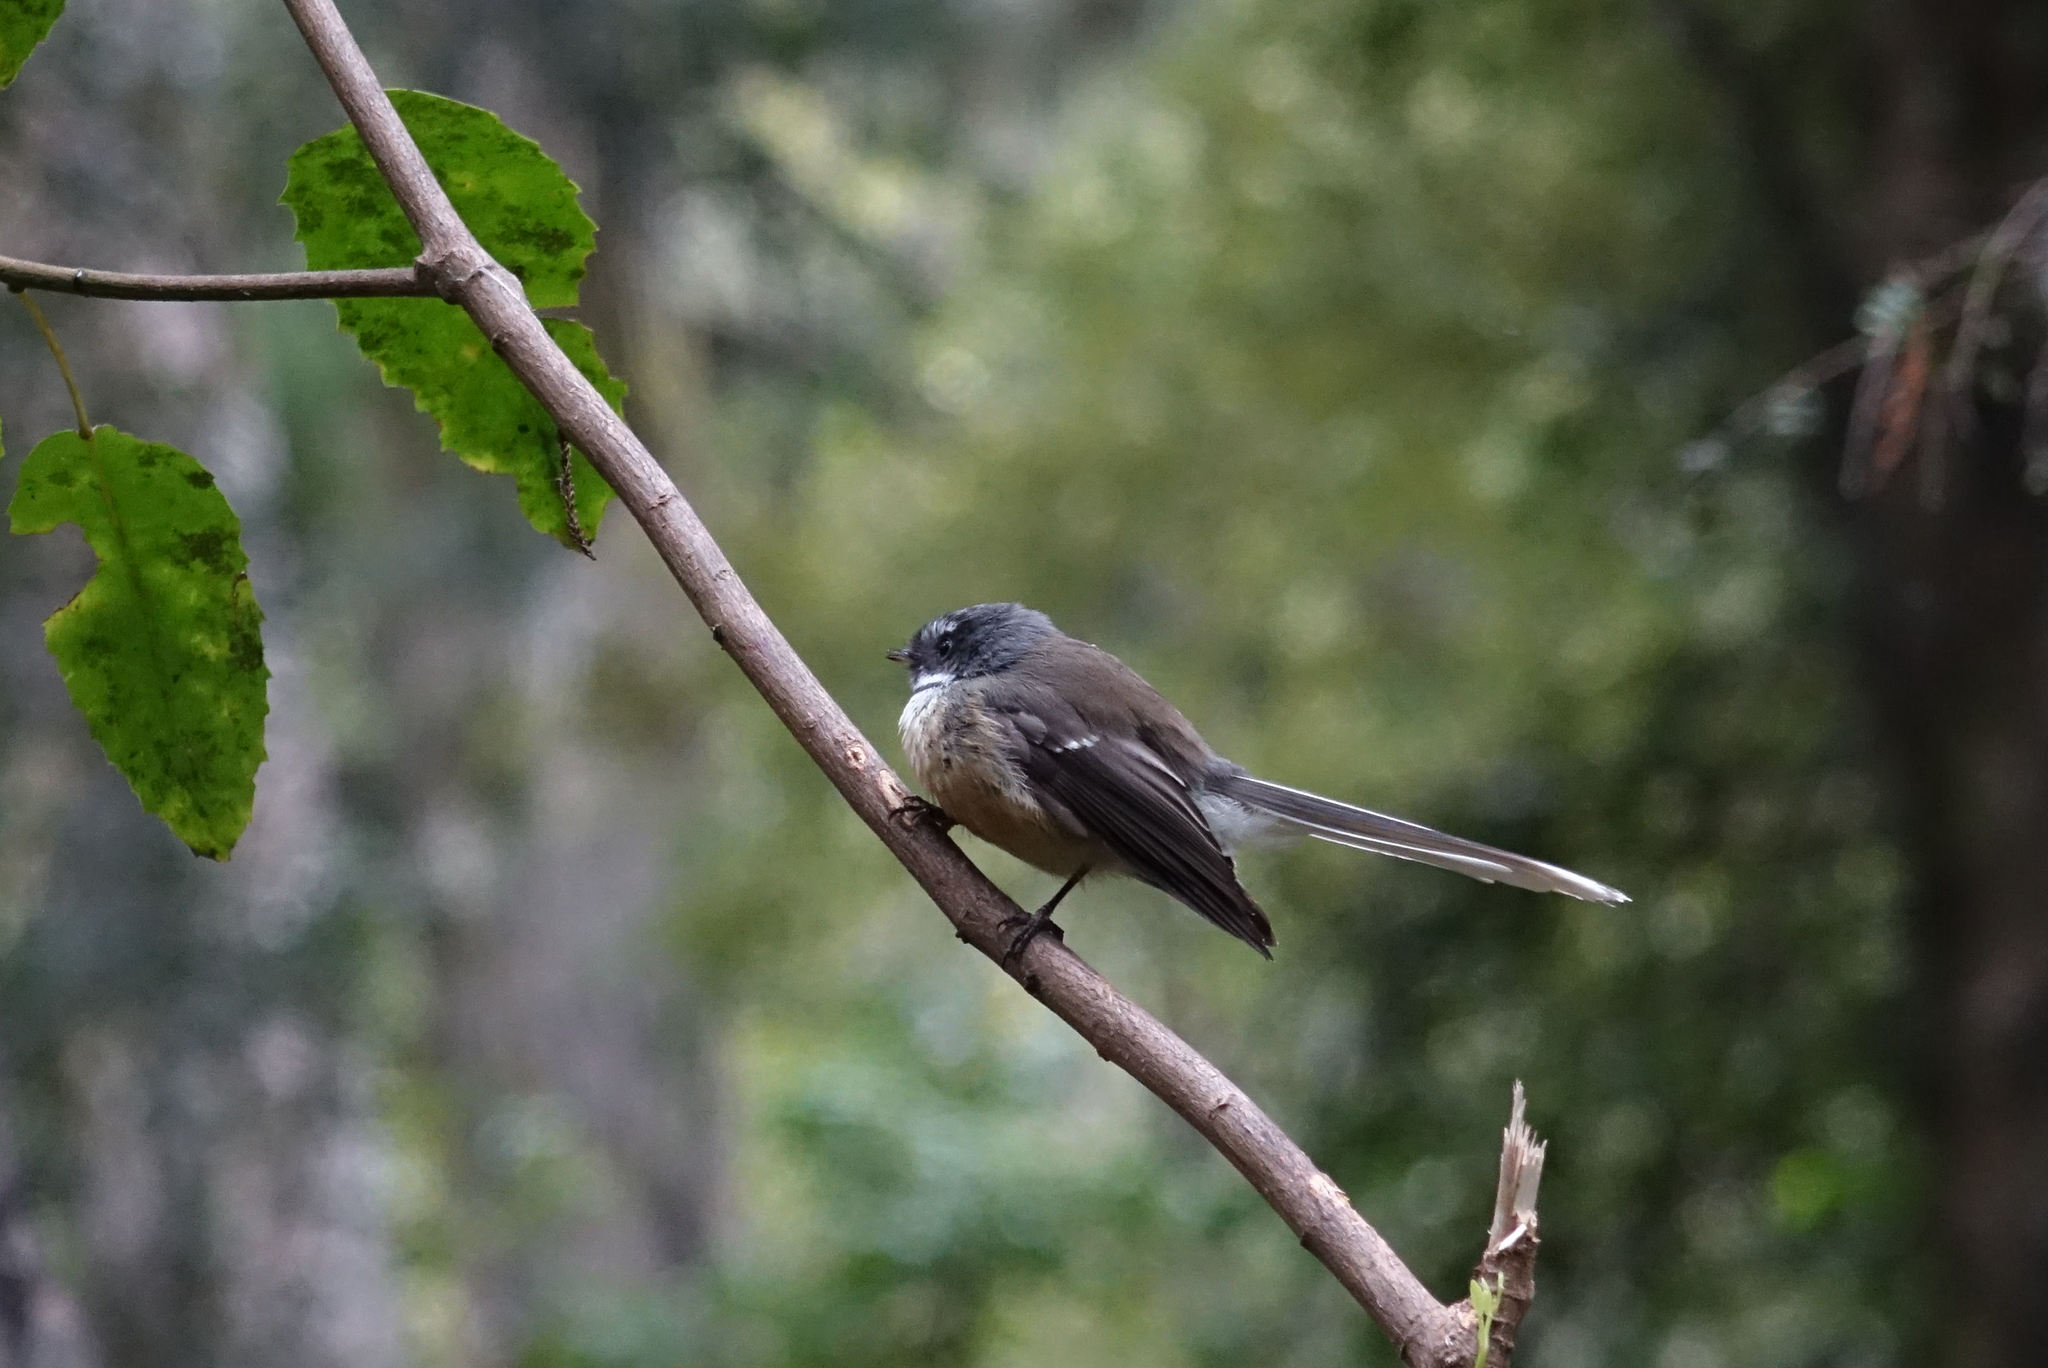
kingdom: Animalia
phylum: Chordata
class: Aves
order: Passeriformes
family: Rhipiduridae
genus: Rhipidura
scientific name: Rhipidura fuliginosa
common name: New zealand fantail
